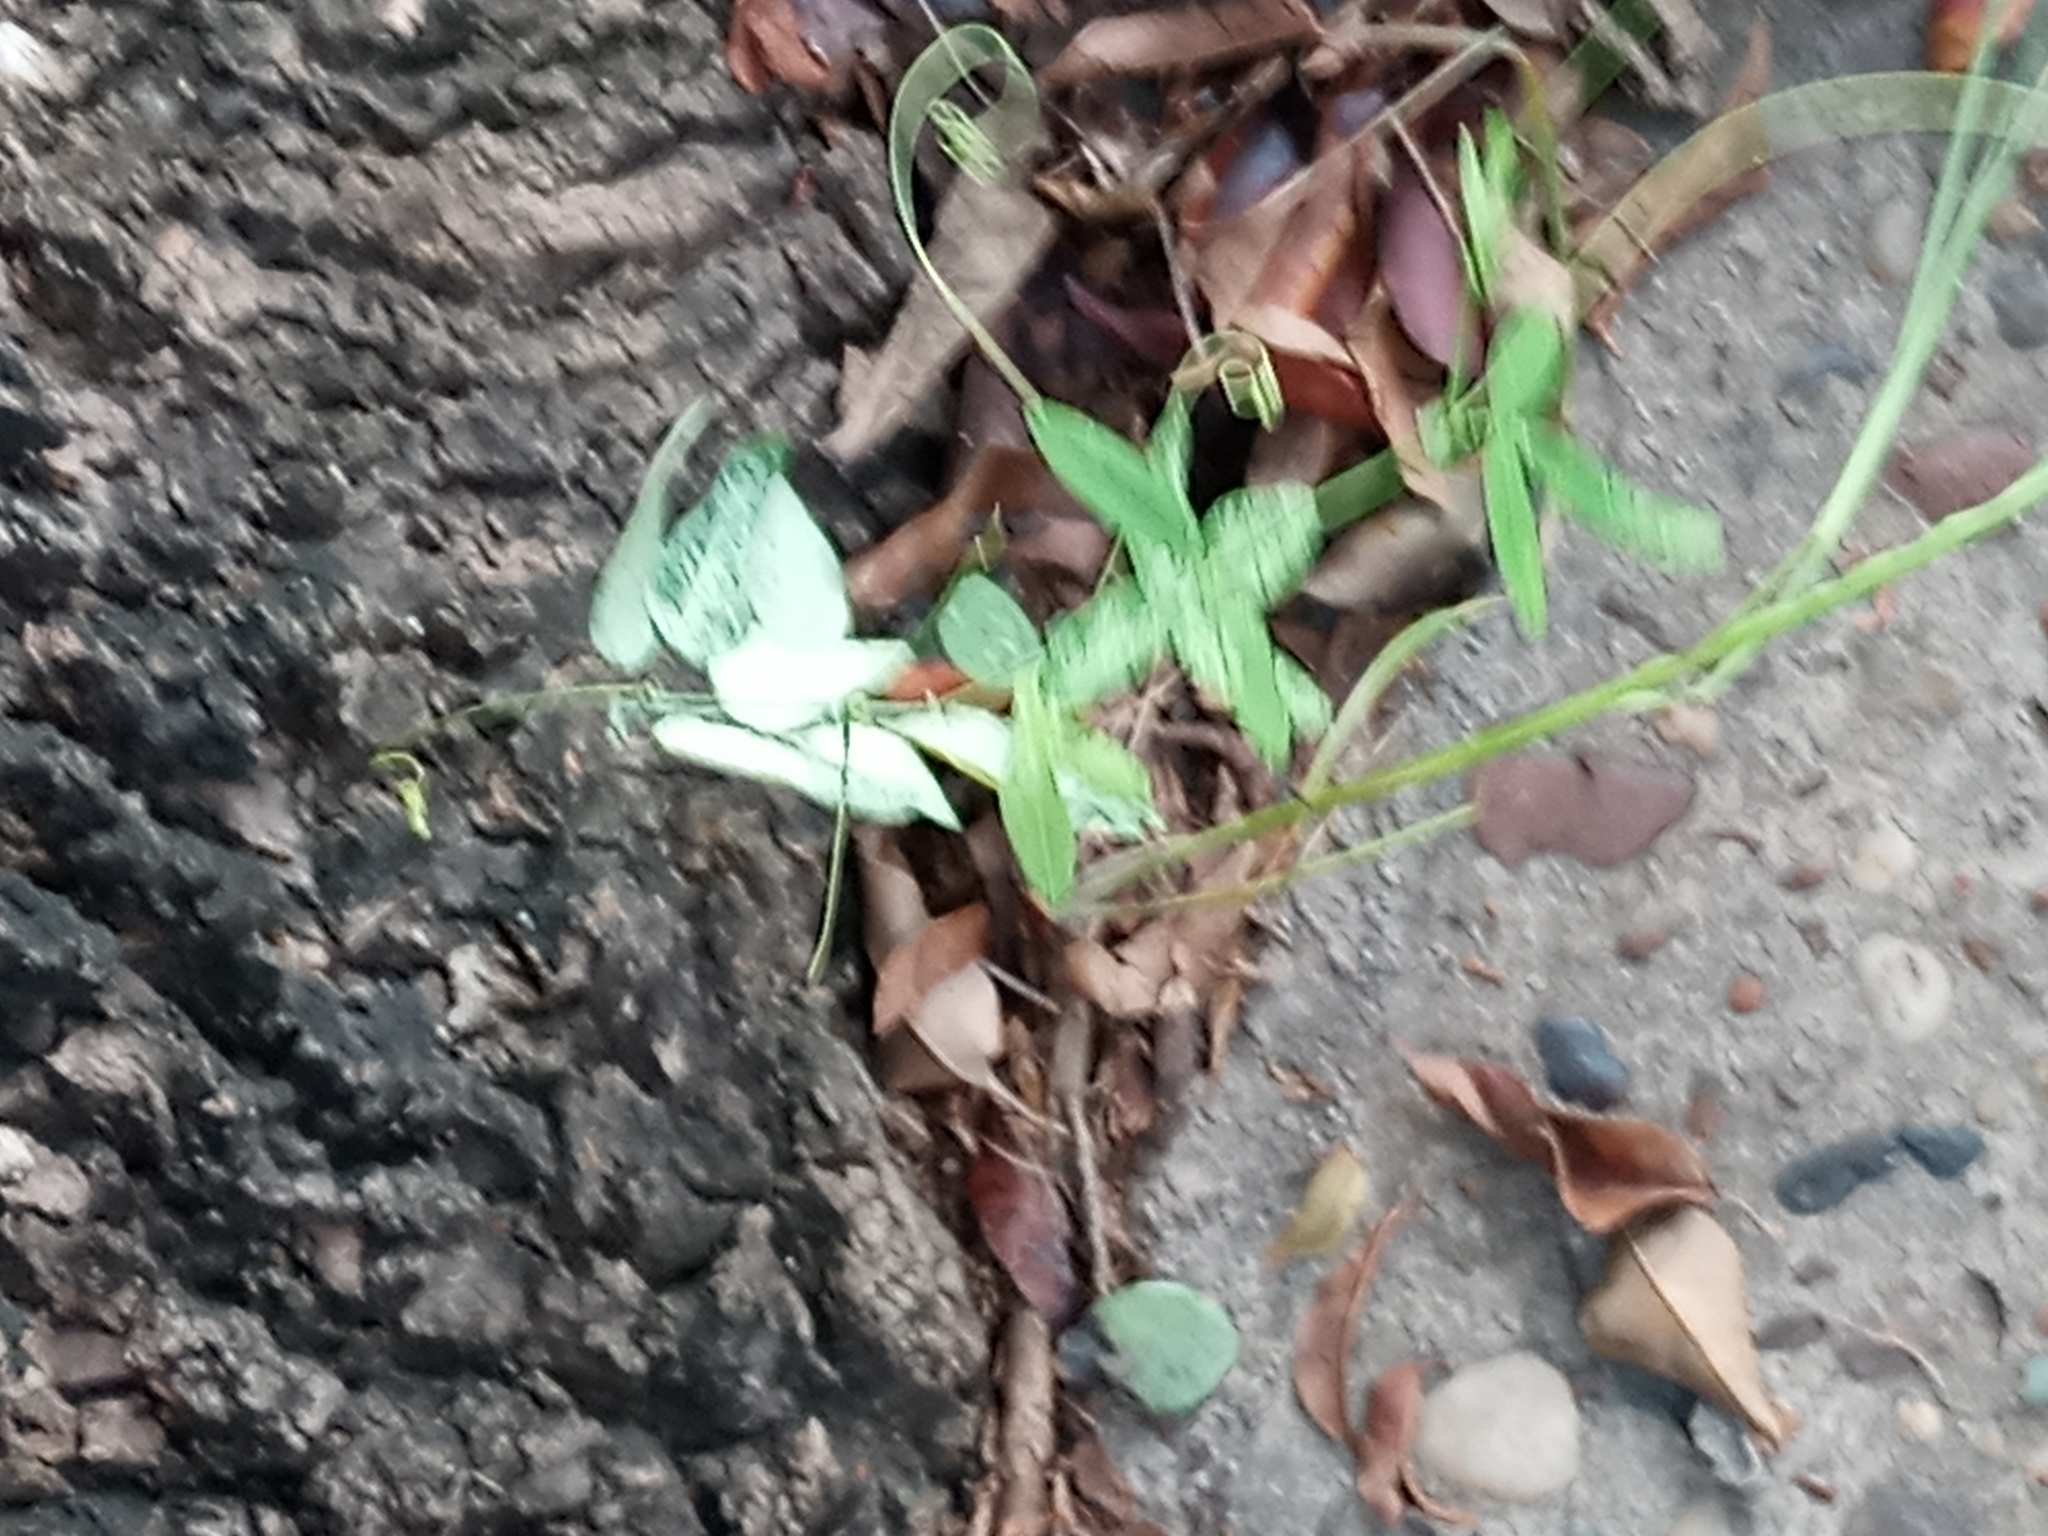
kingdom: Plantae
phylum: Tracheophyta
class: Magnoliopsida
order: Malpighiales
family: Passifloraceae
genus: Passiflora
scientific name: Passiflora caerulea
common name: Blue passionflower
